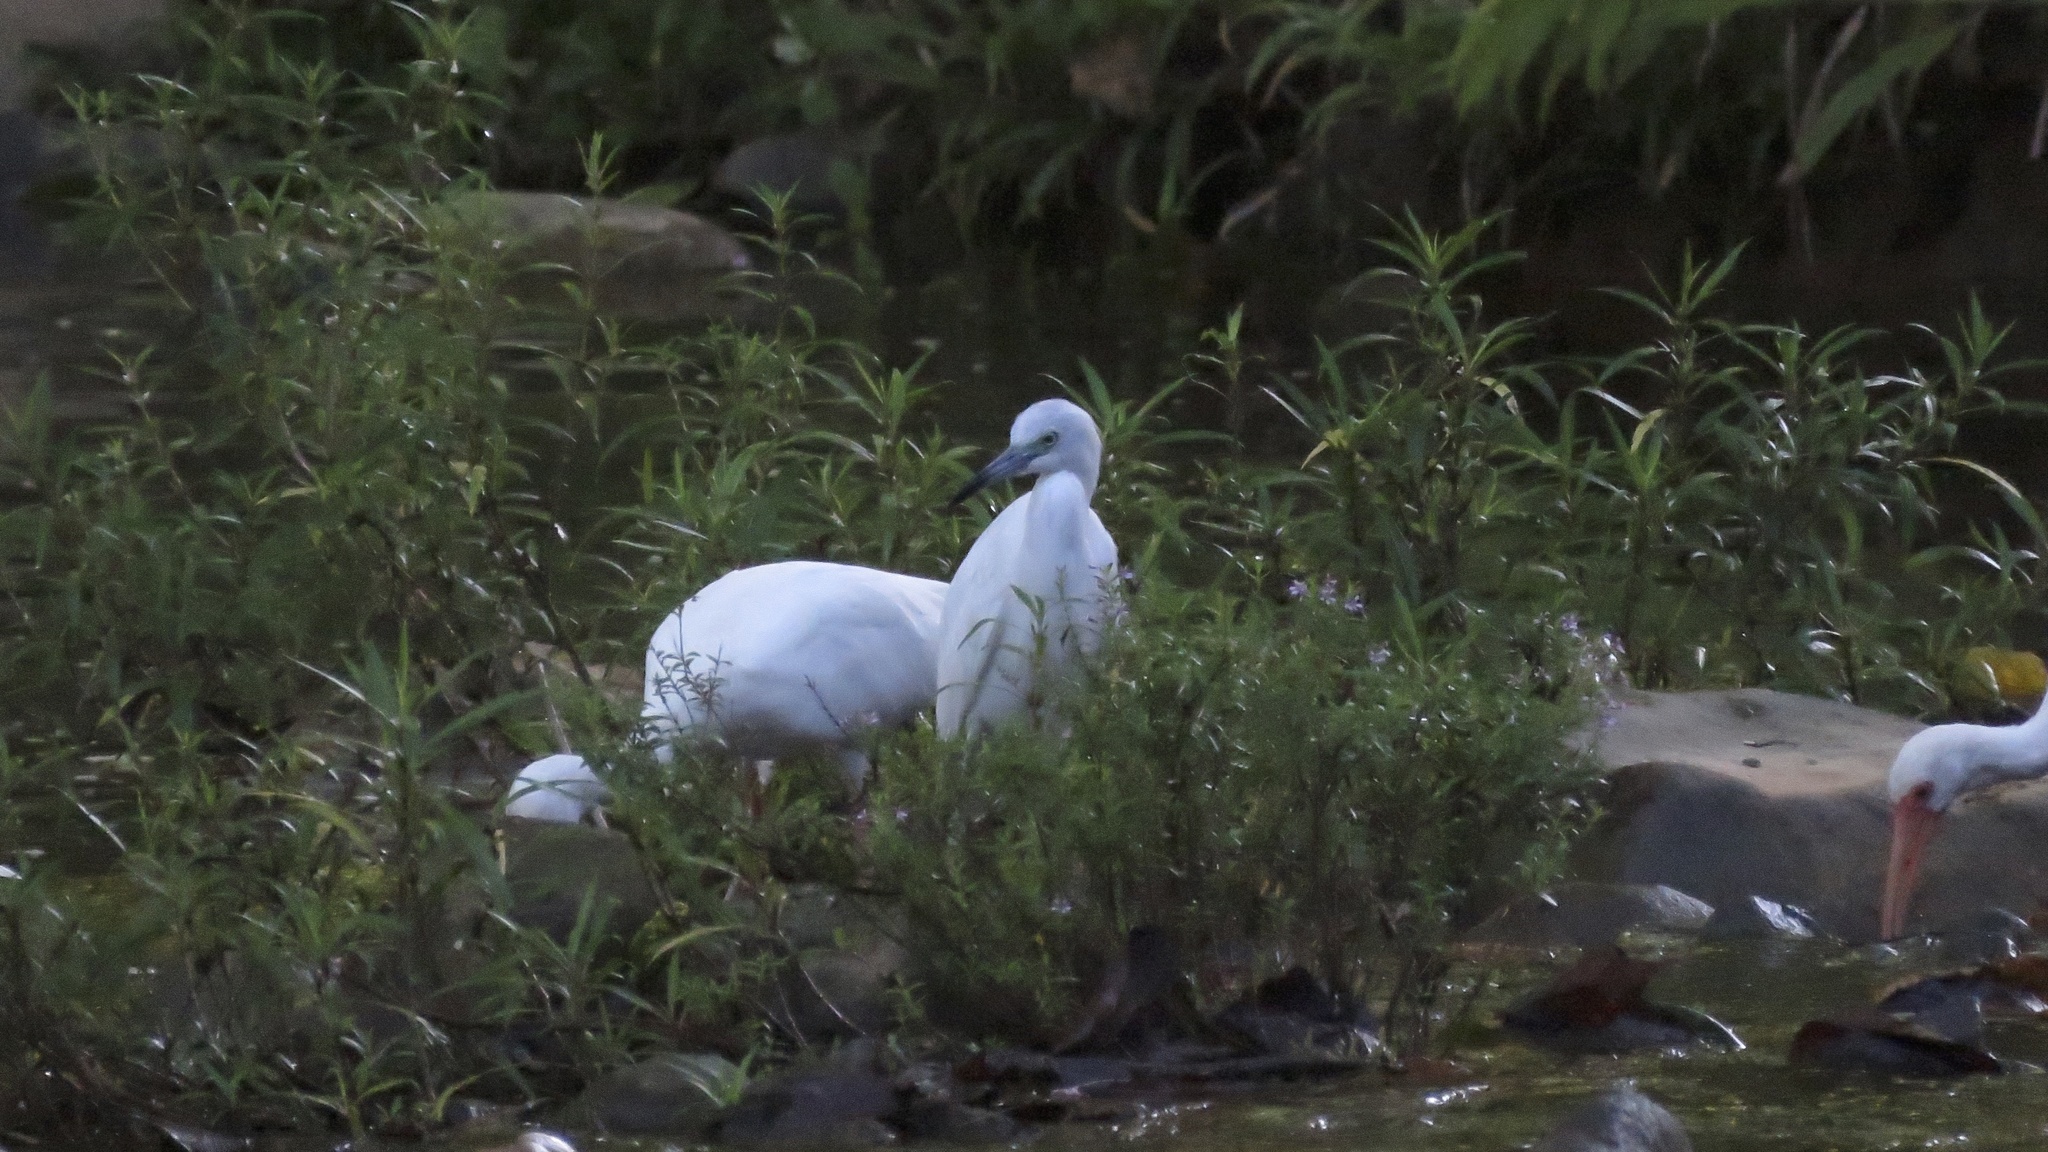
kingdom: Animalia
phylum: Chordata
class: Aves
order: Pelecaniformes
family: Ardeidae
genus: Egretta
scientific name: Egretta caerulea
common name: Little blue heron
